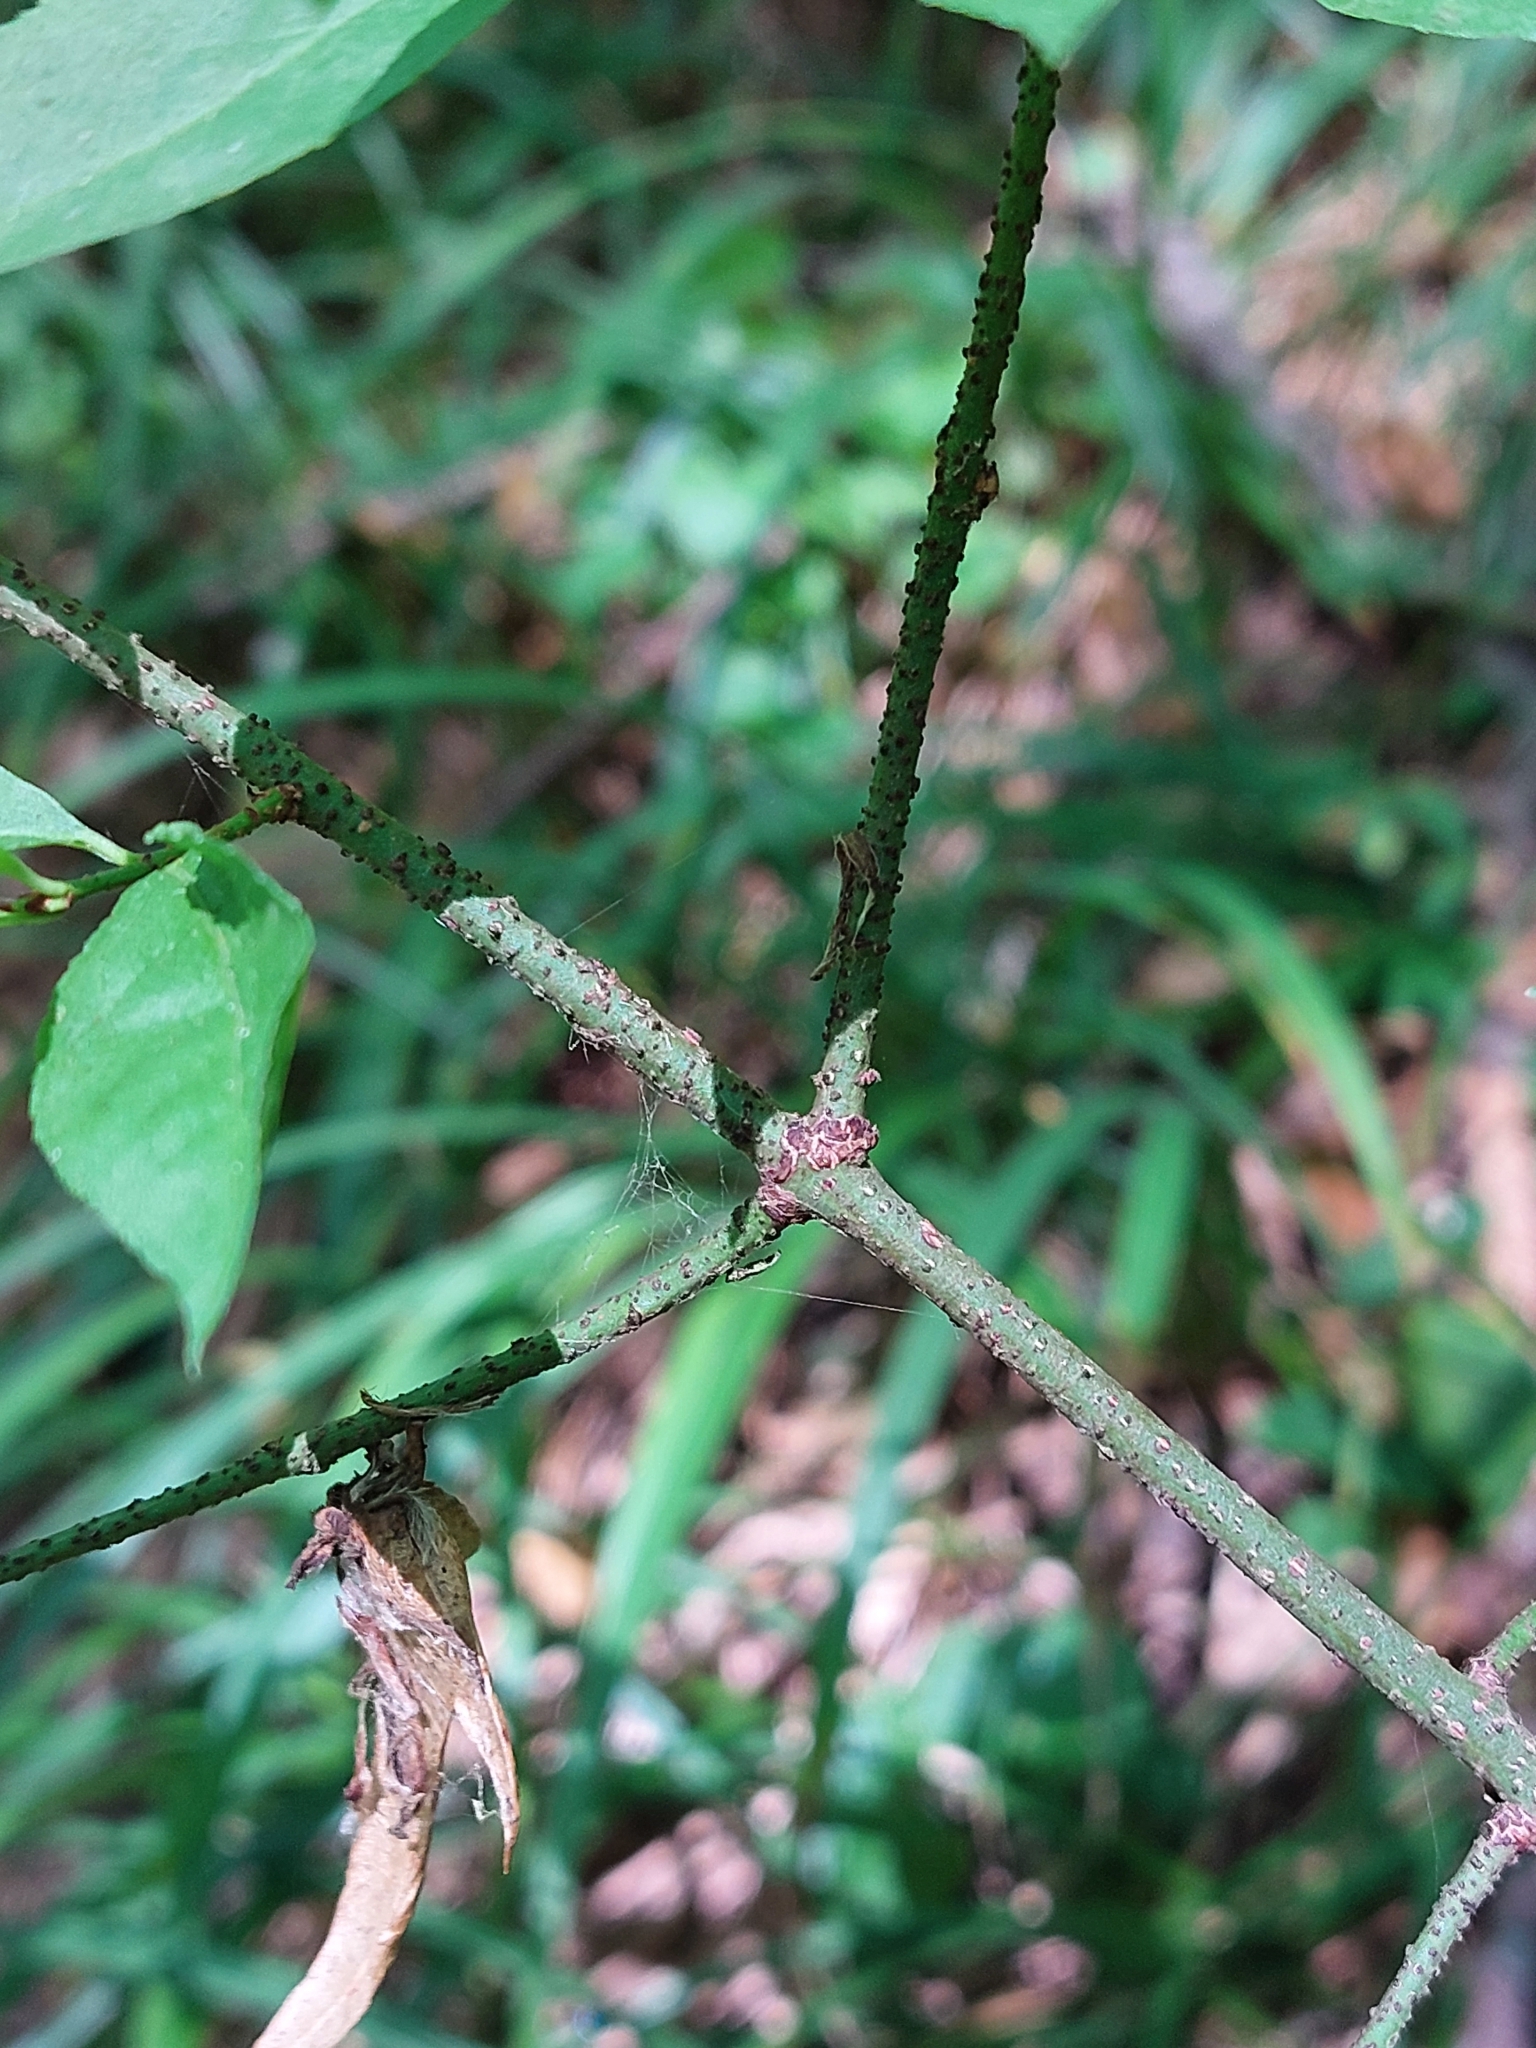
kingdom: Plantae
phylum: Tracheophyta
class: Magnoliopsida
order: Celastrales
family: Celastraceae
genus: Euonymus
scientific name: Euonymus verrucosus
